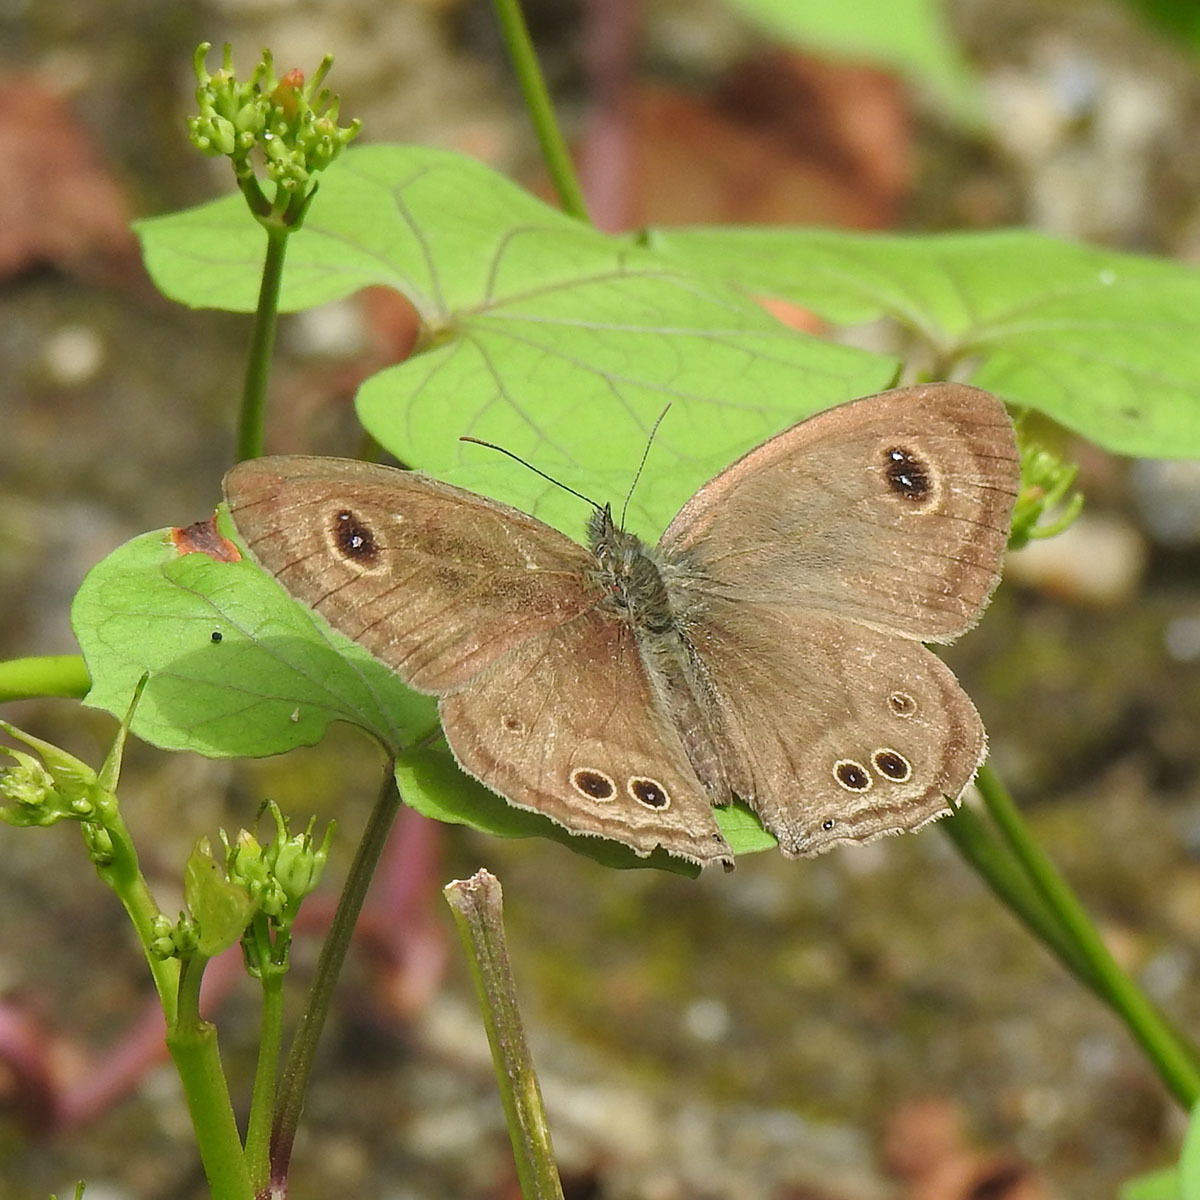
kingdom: Animalia
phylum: Arthropoda
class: Insecta
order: Lepidoptera
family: Nymphalidae
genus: Ypthima
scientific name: Ypthima baldus
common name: Common five-ring
